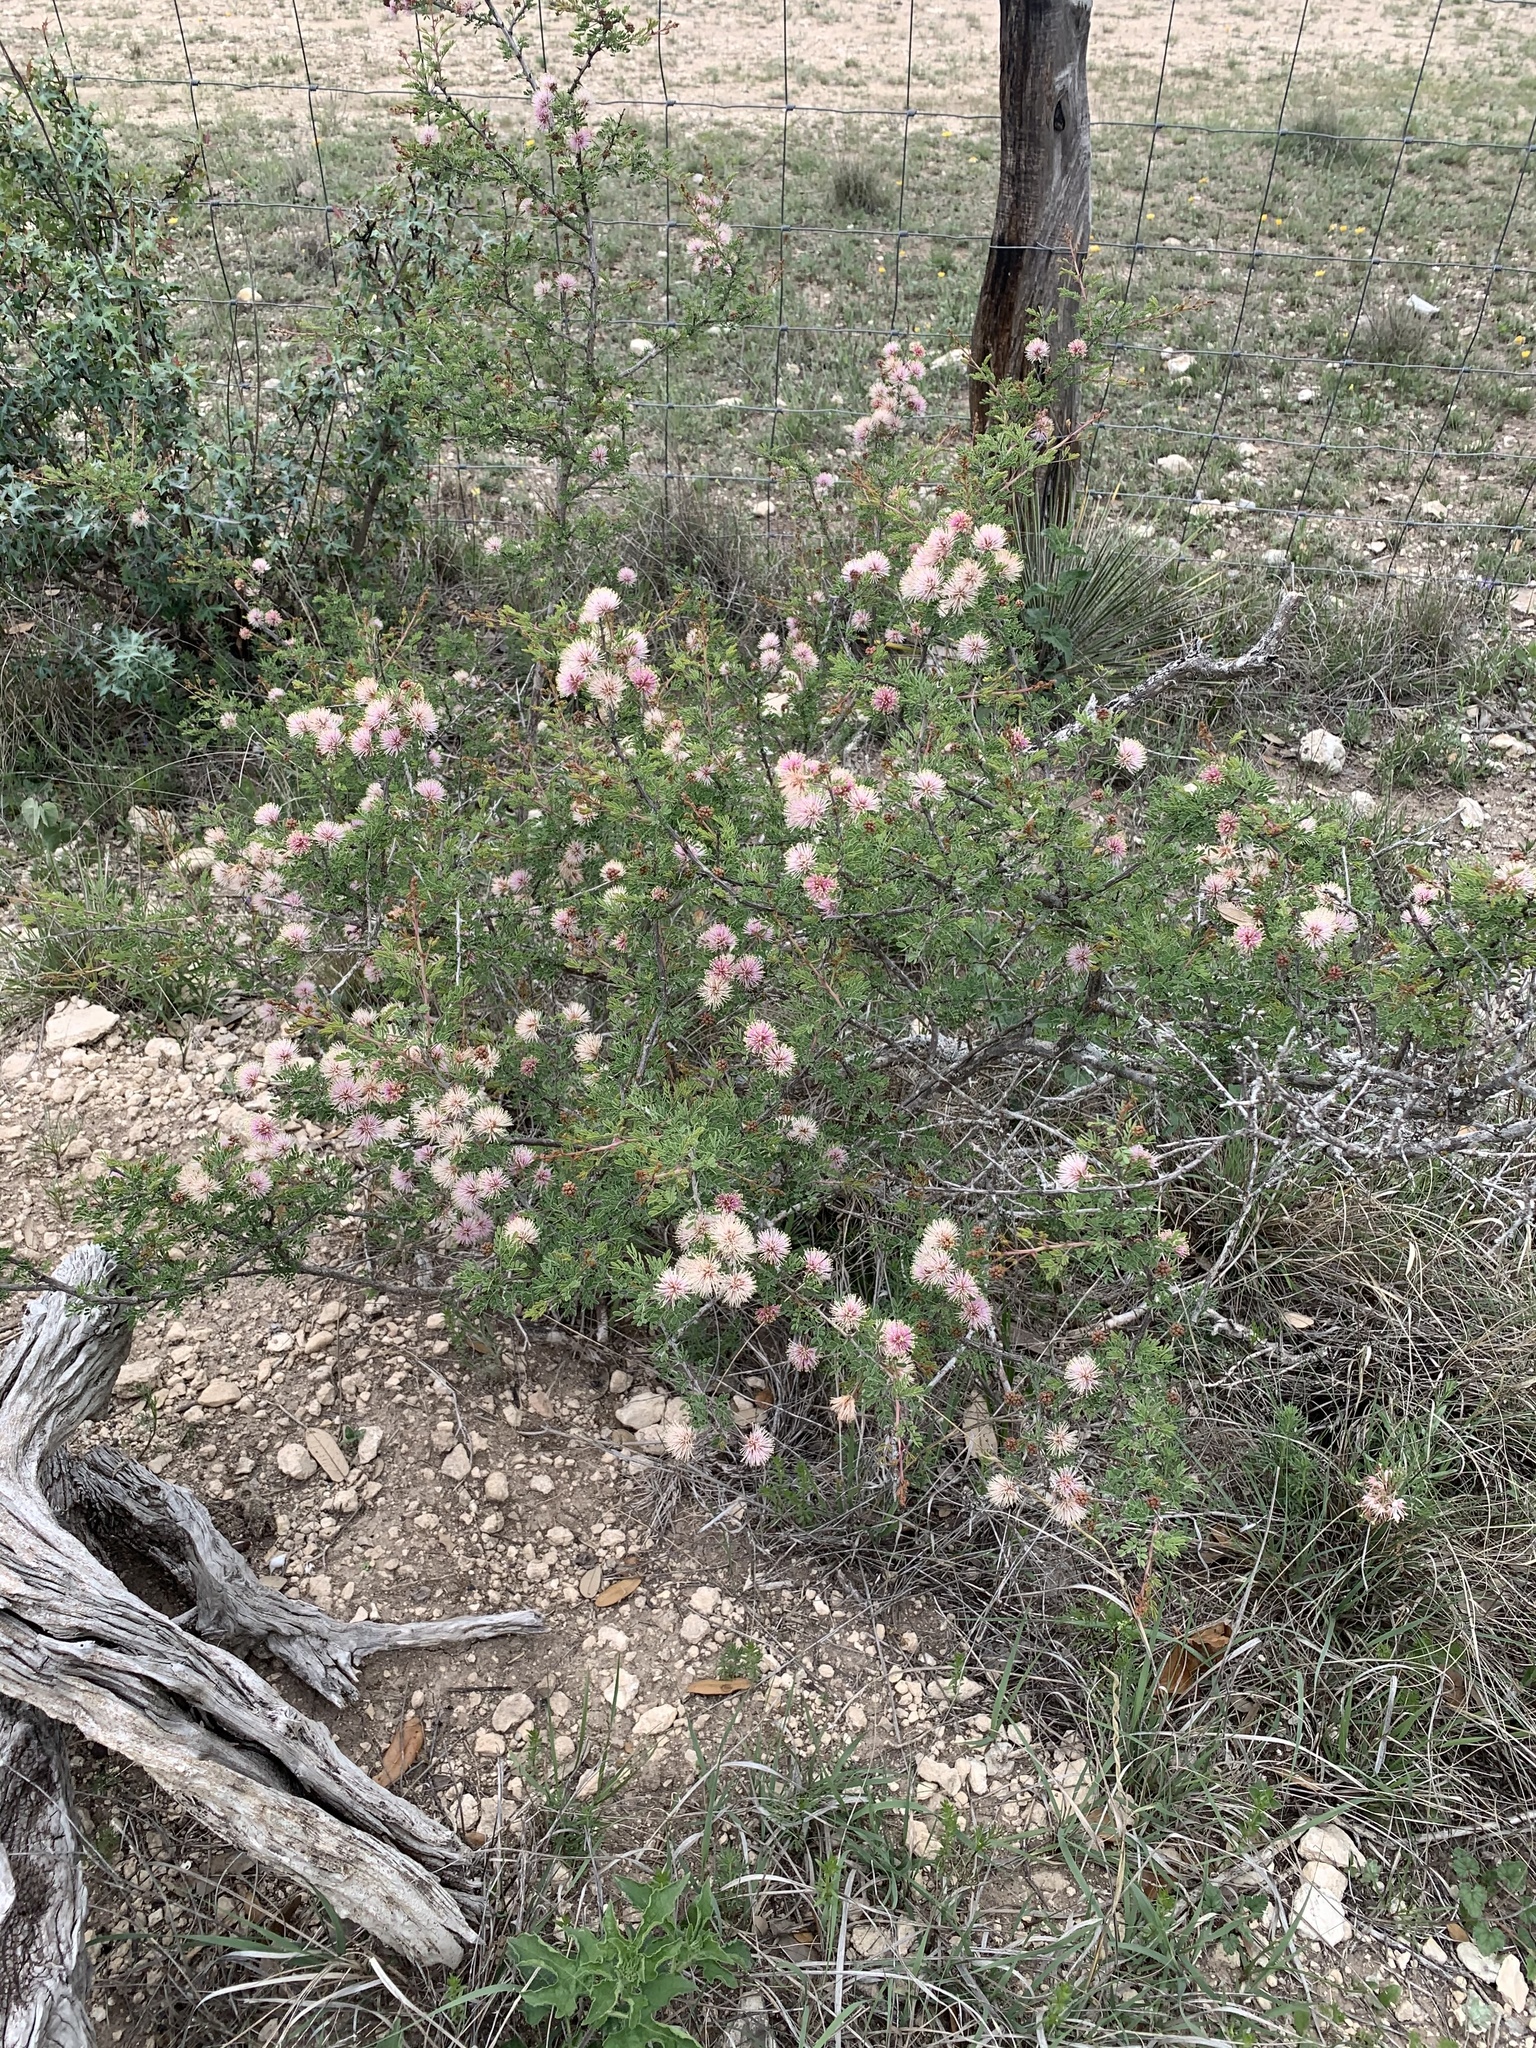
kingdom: Plantae
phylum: Tracheophyta
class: Magnoliopsida
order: Fabales
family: Fabaceae
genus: Mimosa
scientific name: Mimosa borealis
